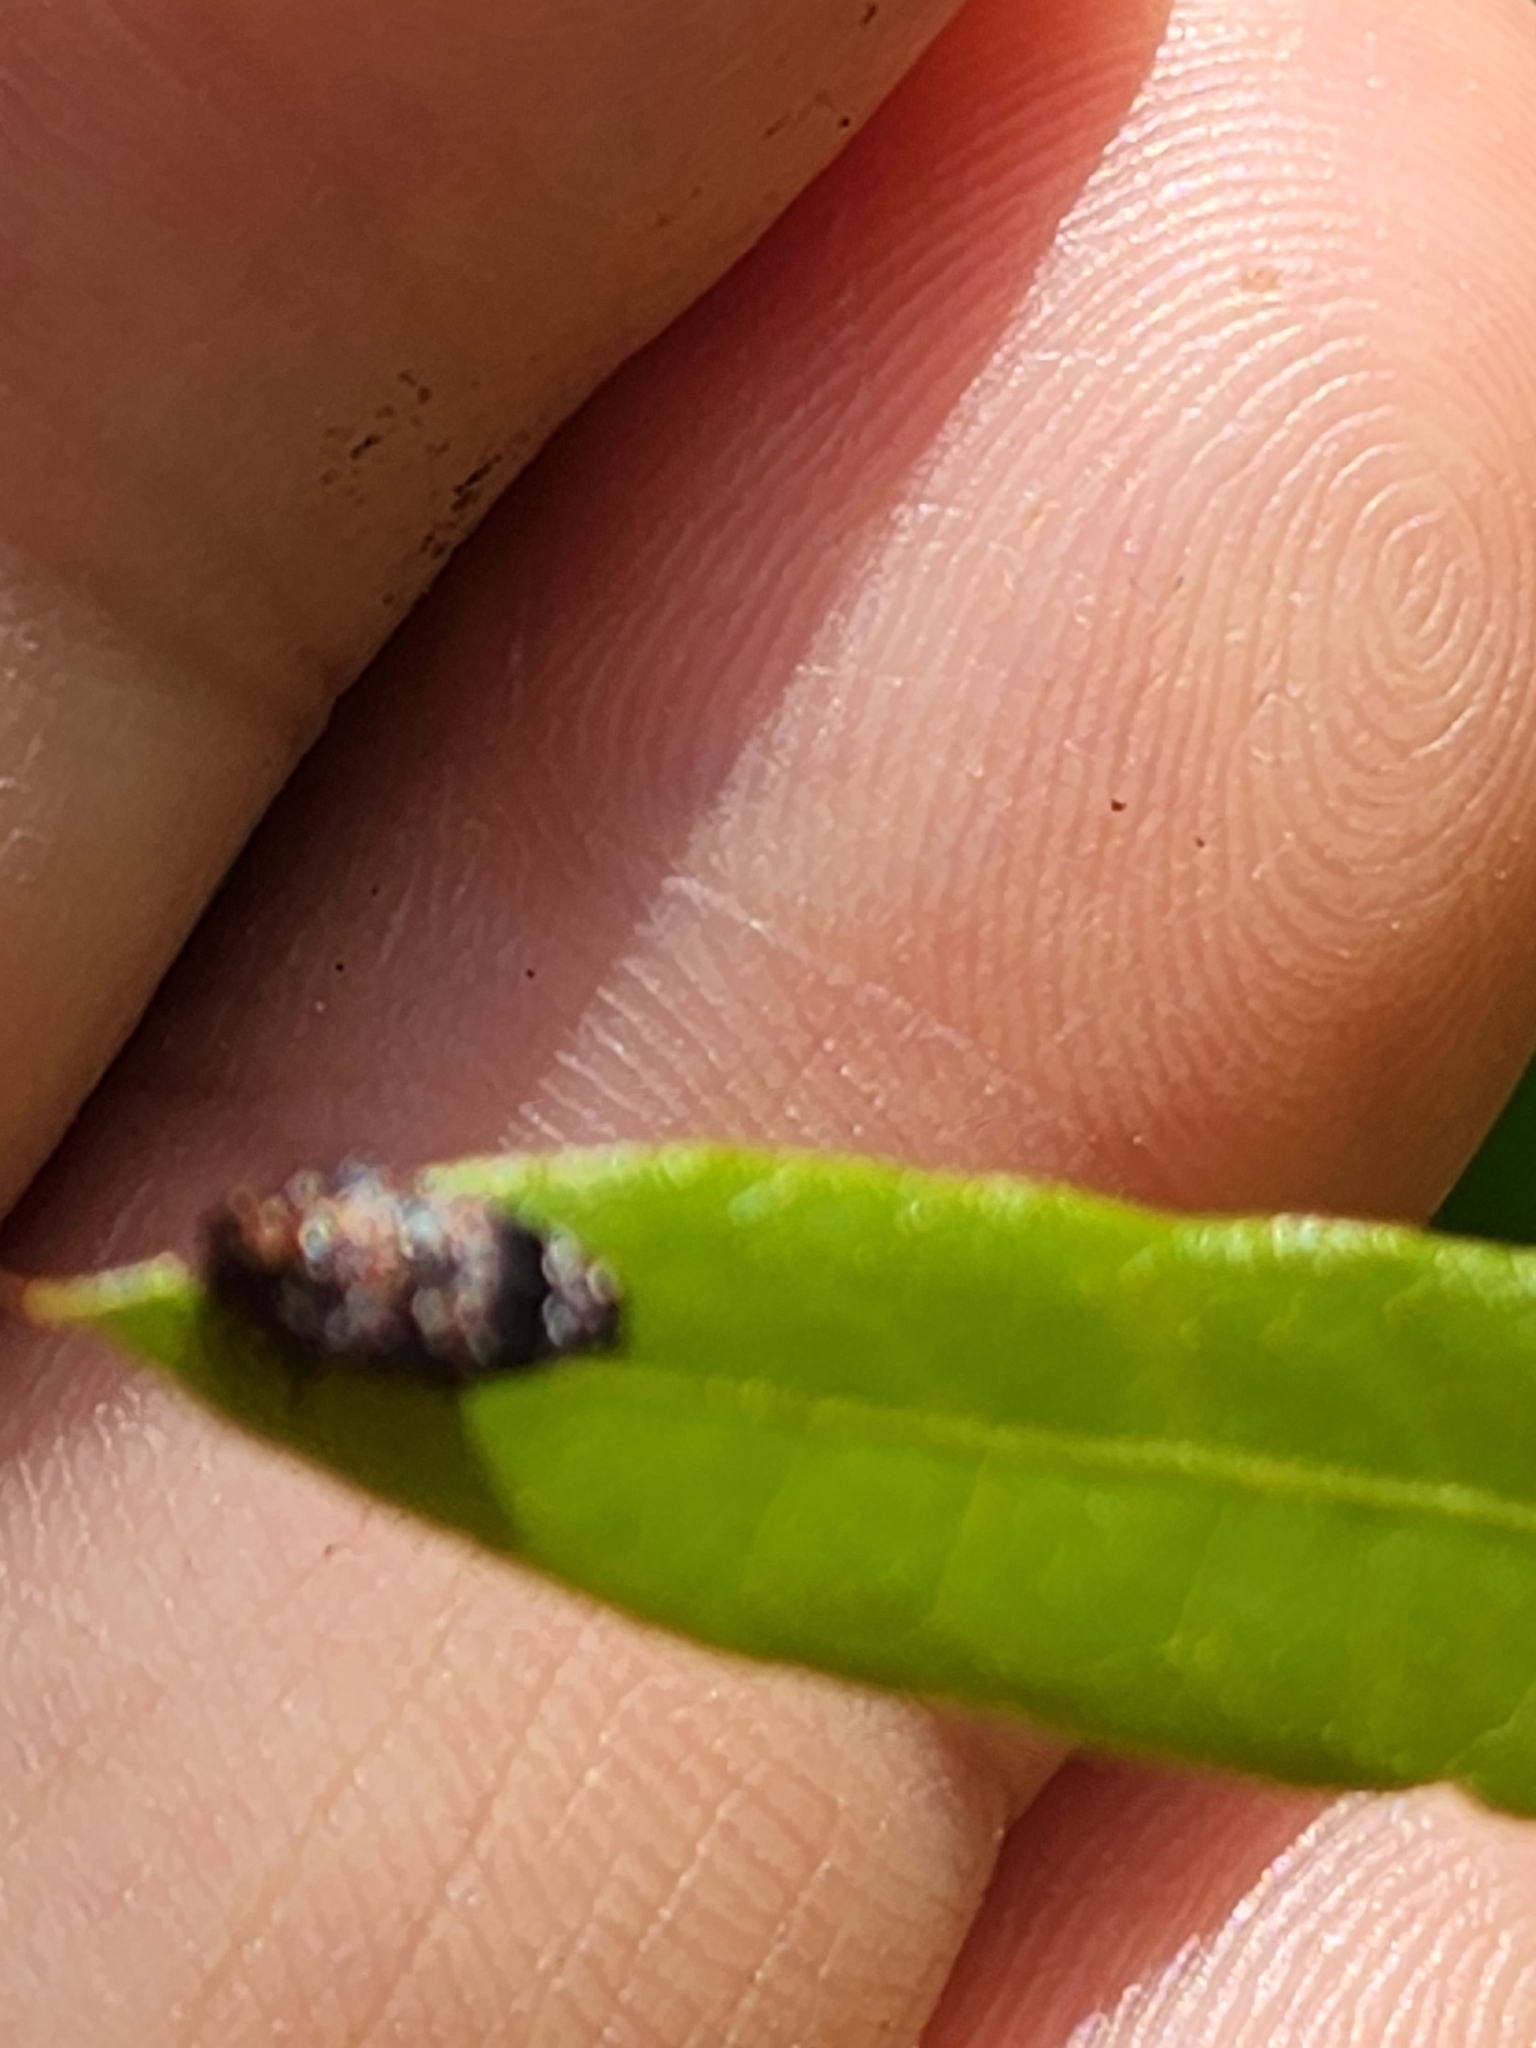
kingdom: Animalia
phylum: Arthropoda
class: Insecta
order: Coleoptera
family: Buprestidae
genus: Brachys
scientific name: Brachys ovatus
